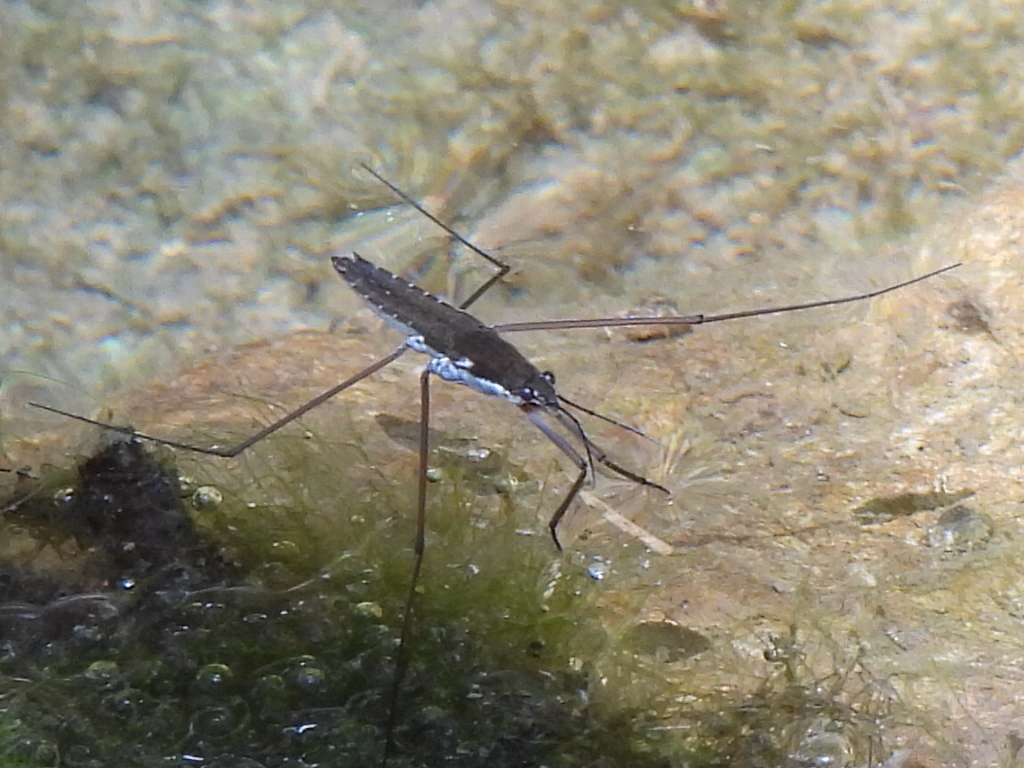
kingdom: Animalia
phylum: Arthropoda
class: Insecta
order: Hemiptera
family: Gerridae
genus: Aquarius
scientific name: Aquarius remigis
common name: Common water strider
